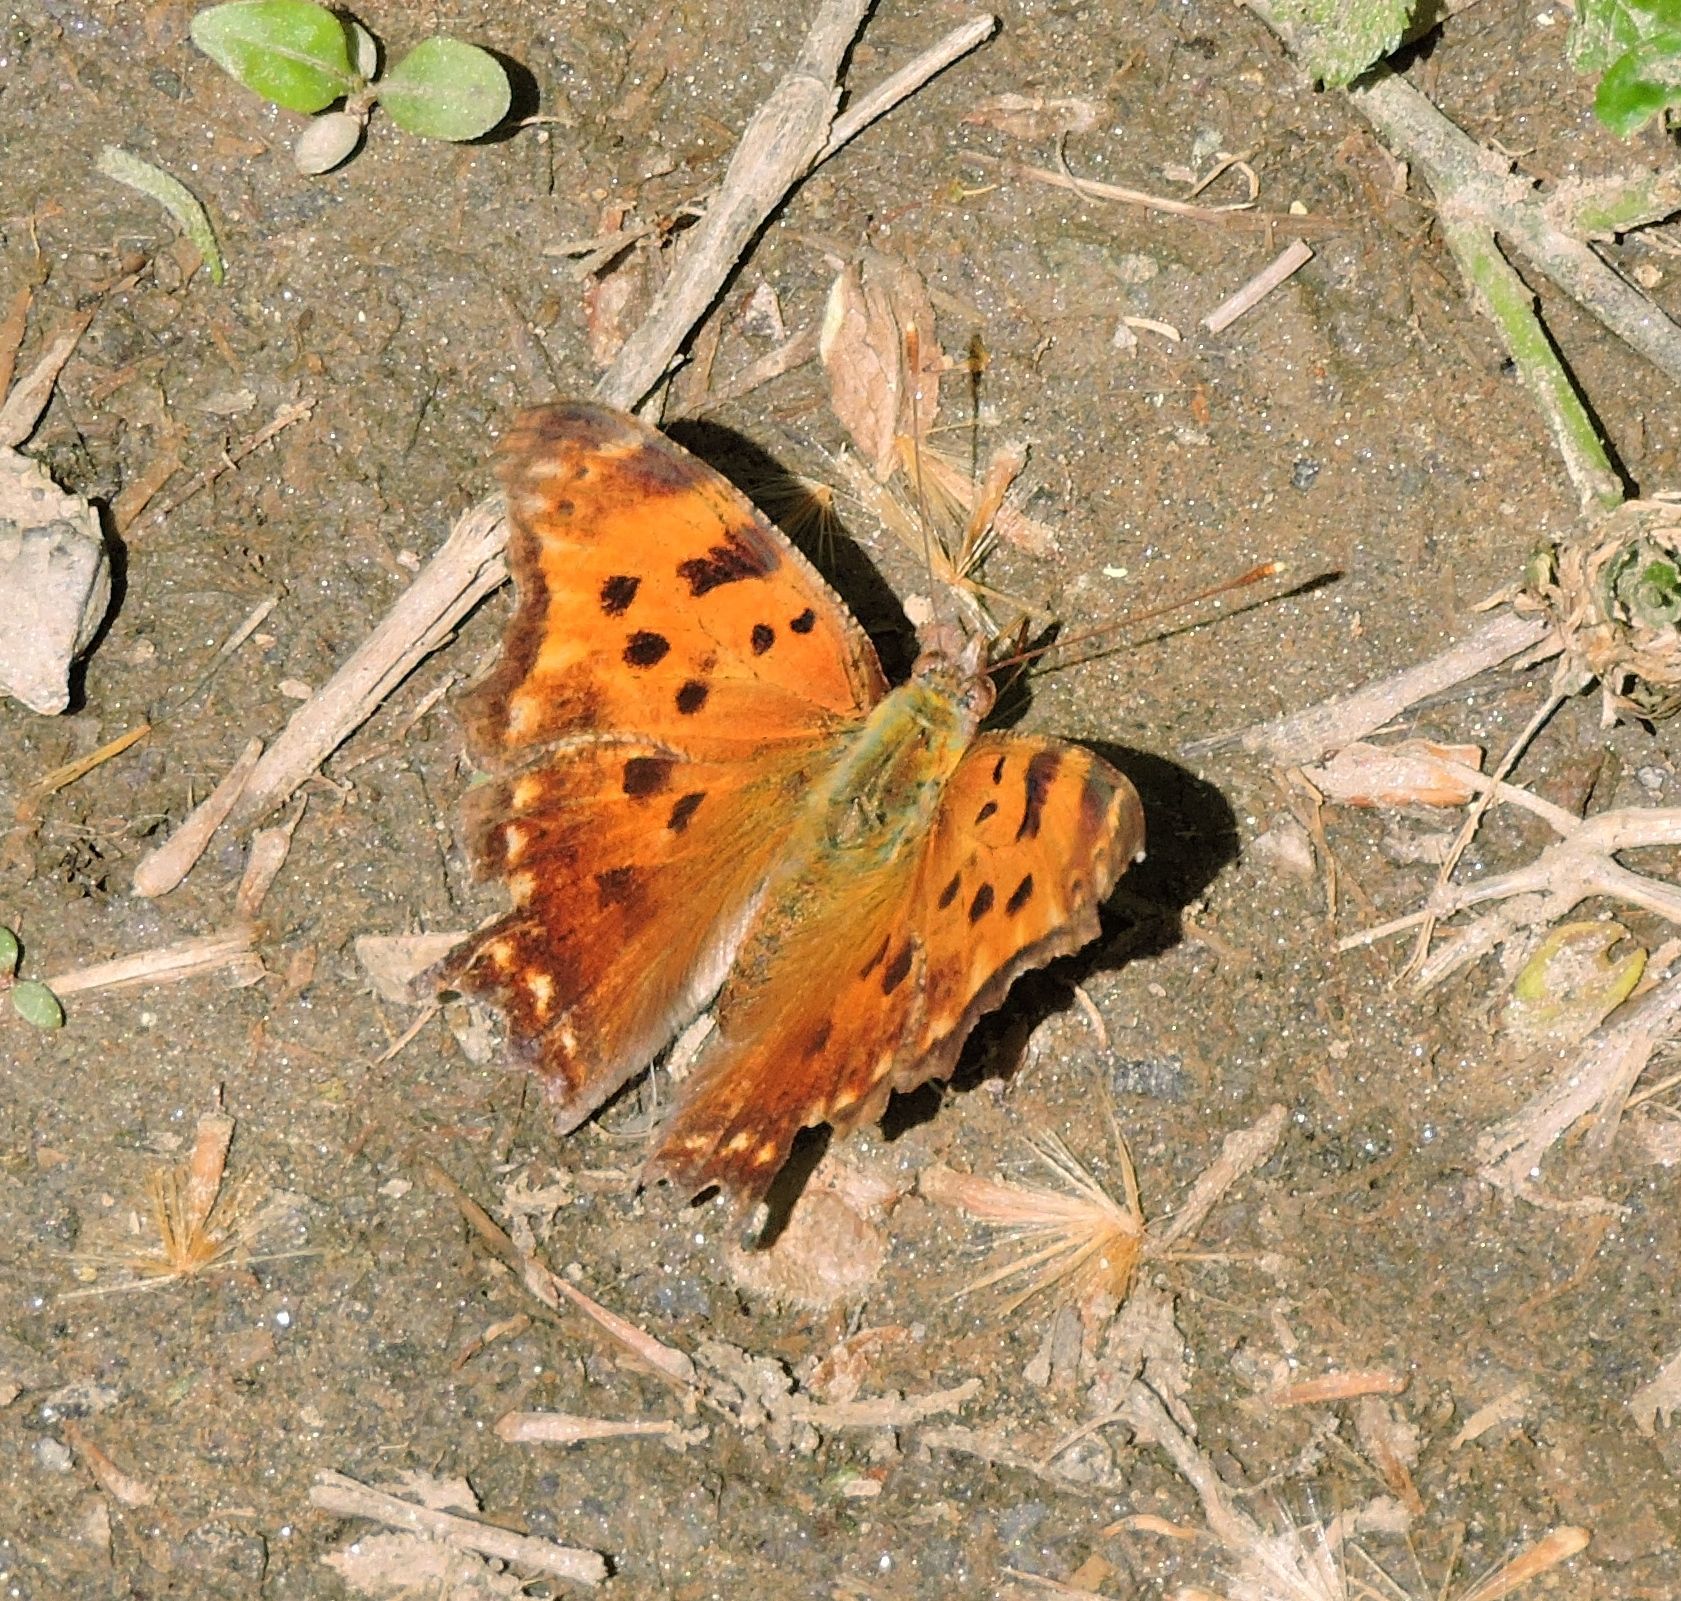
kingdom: Animalia
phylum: Arthropoda
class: Insecta
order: Lepidoptera
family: Nymphalidae
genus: Polygonia
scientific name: Polygonia comma
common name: Eastern comma
